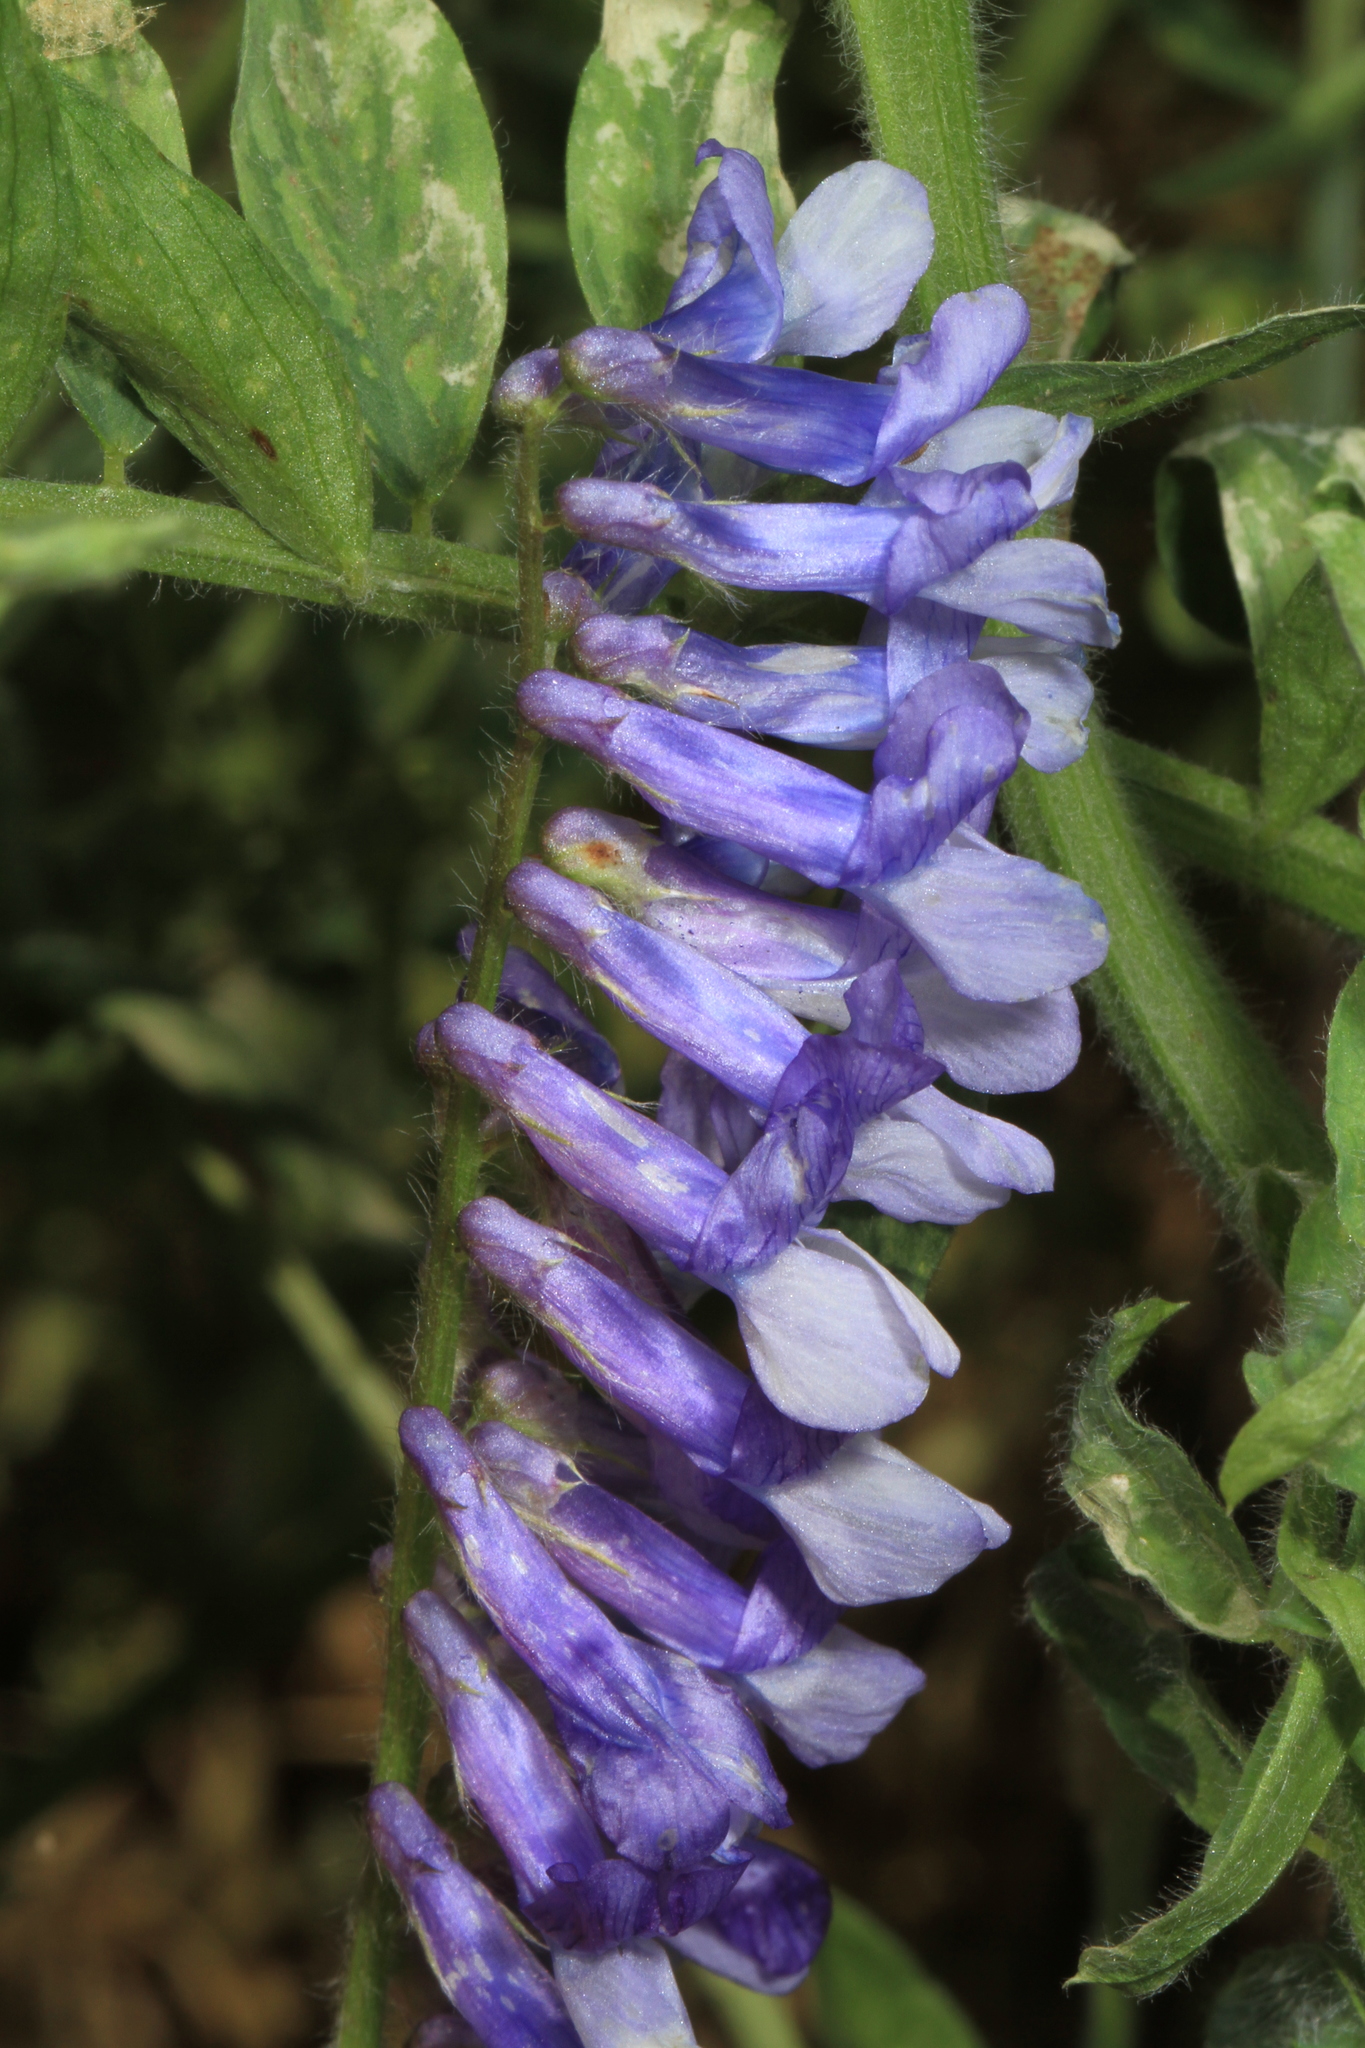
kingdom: Plantae
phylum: Tracheophyta
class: Magnoliopsida
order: Fabales
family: Fabaceae
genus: Vicia
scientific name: Vicia villosa
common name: Fodder vetch
